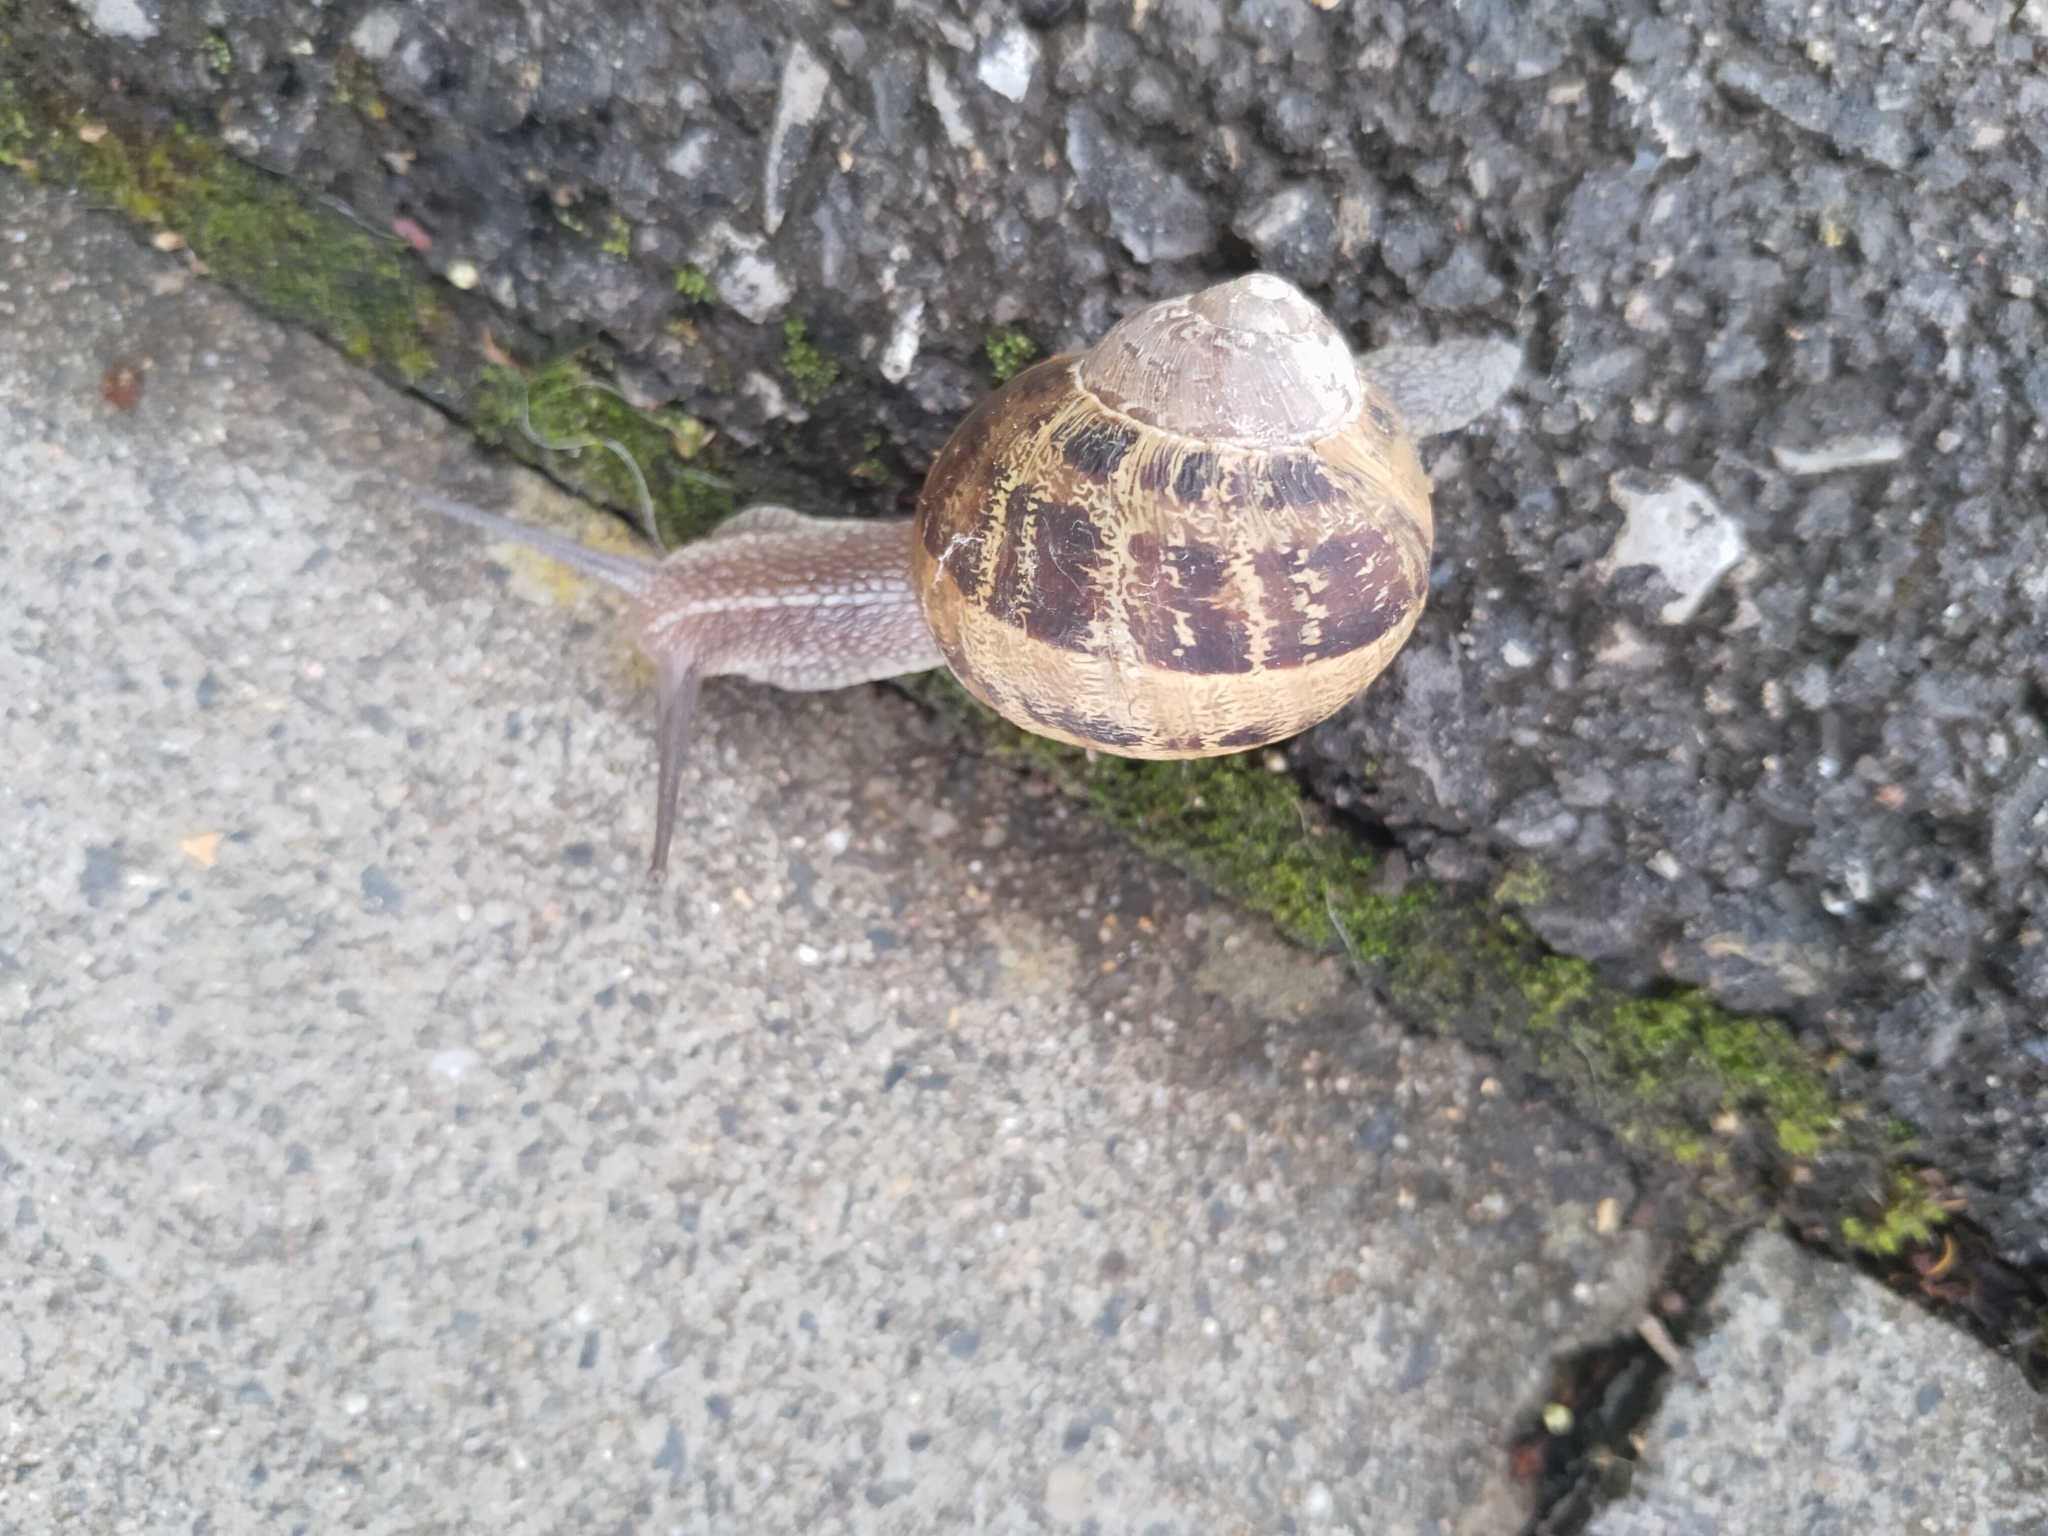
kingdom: Animalia
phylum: Mollusca
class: Gastropoda
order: Stylommatophora
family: Helicidae
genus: Cornu
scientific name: Cornu aspersum
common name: Brown garden snail
